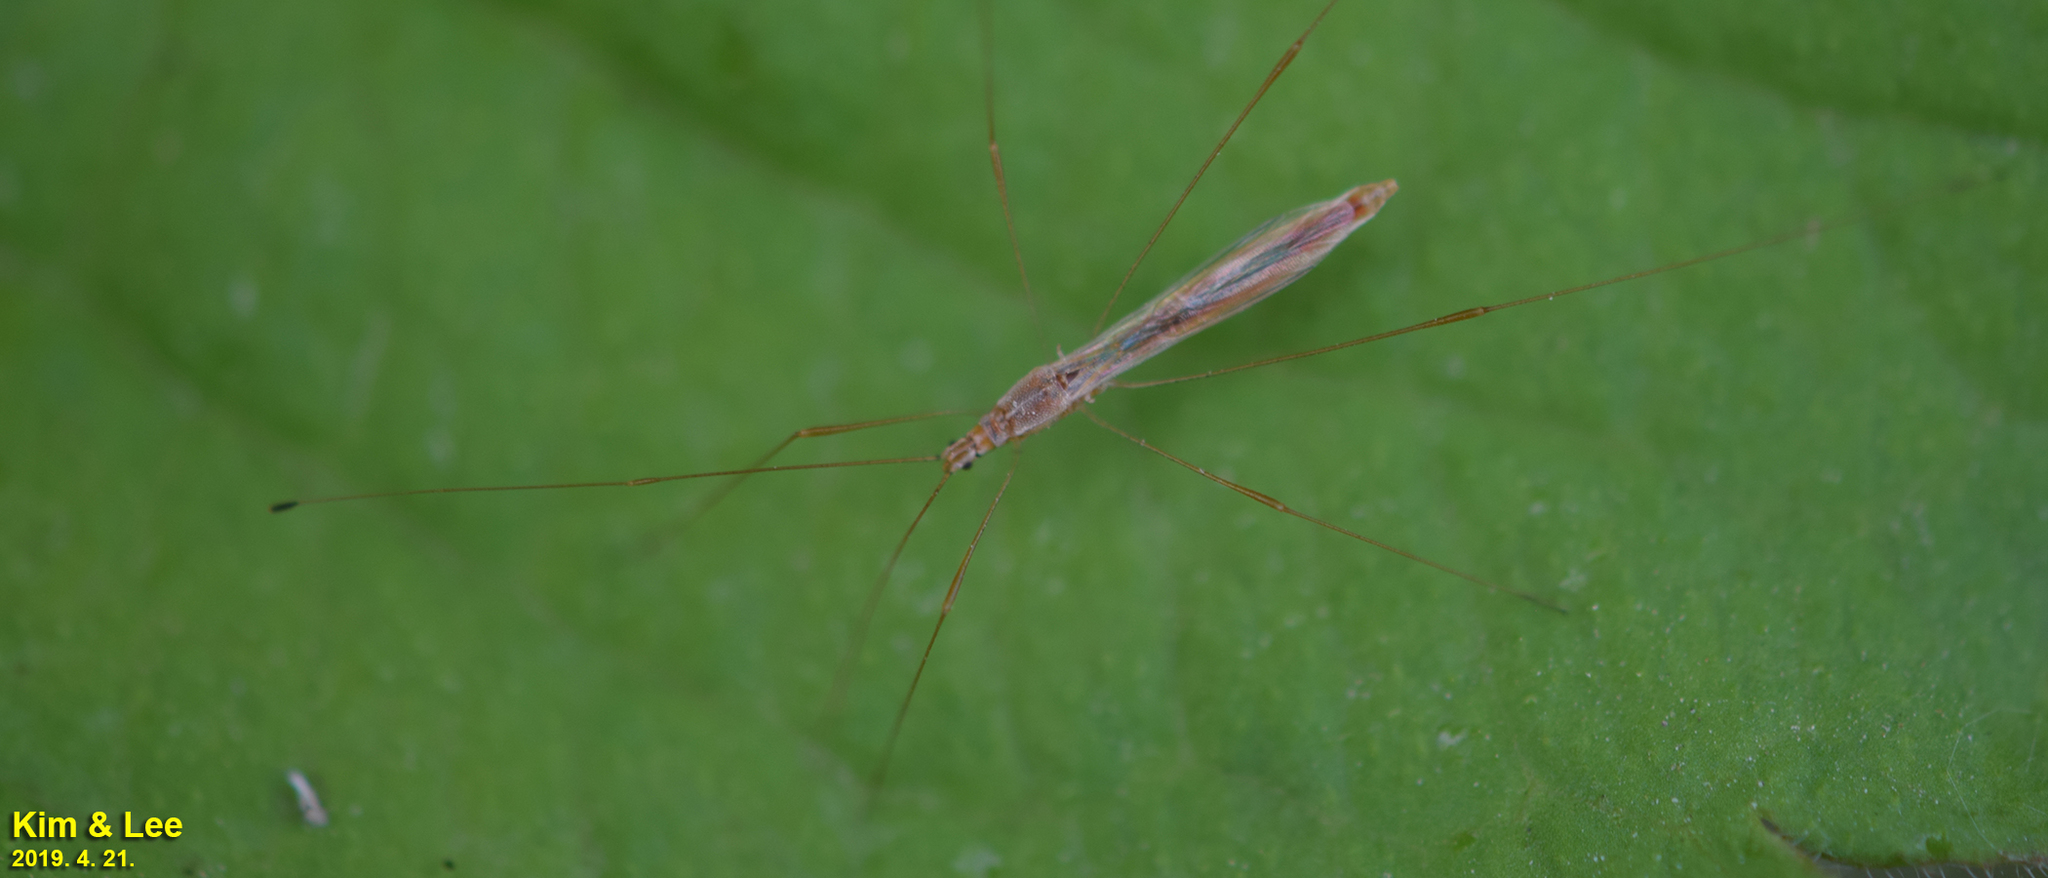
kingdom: Animalia
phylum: Arthropoda
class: Insecta
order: Hemiptera
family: Berytidae
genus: Yemma
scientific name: Yemma exilis
